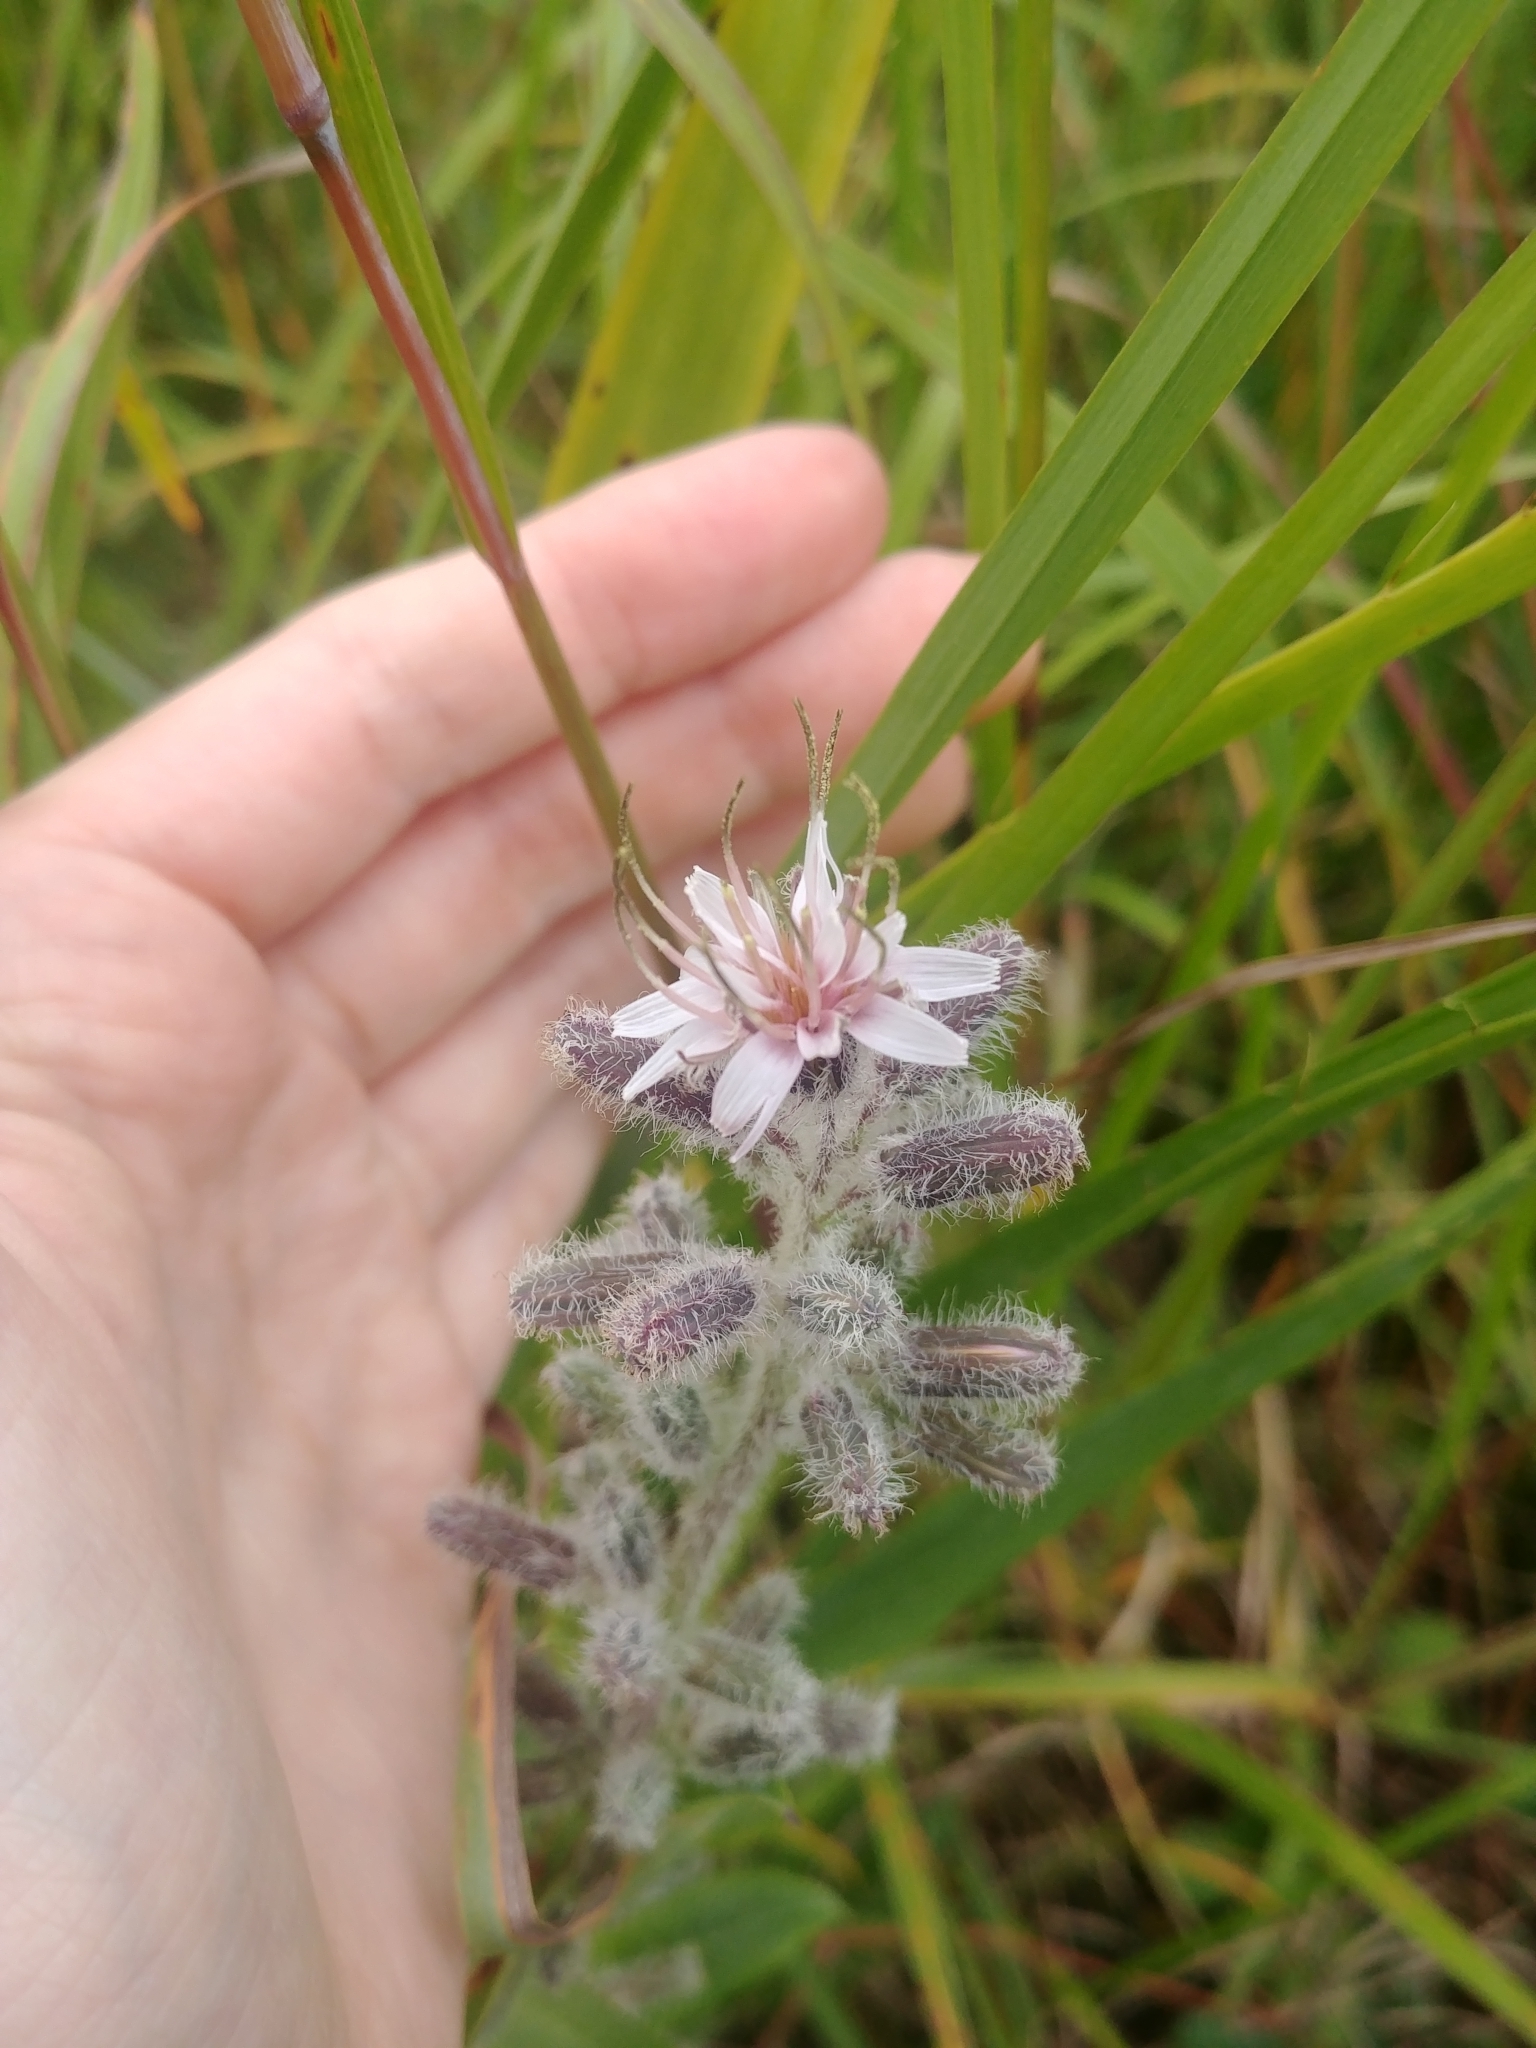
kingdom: Plantae
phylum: Tracheophyta
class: Magnoliopsida
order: Asterales
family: Asteraceae
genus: Nabalus
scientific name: Nabalus racemosus
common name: Glaucous white lettuce
